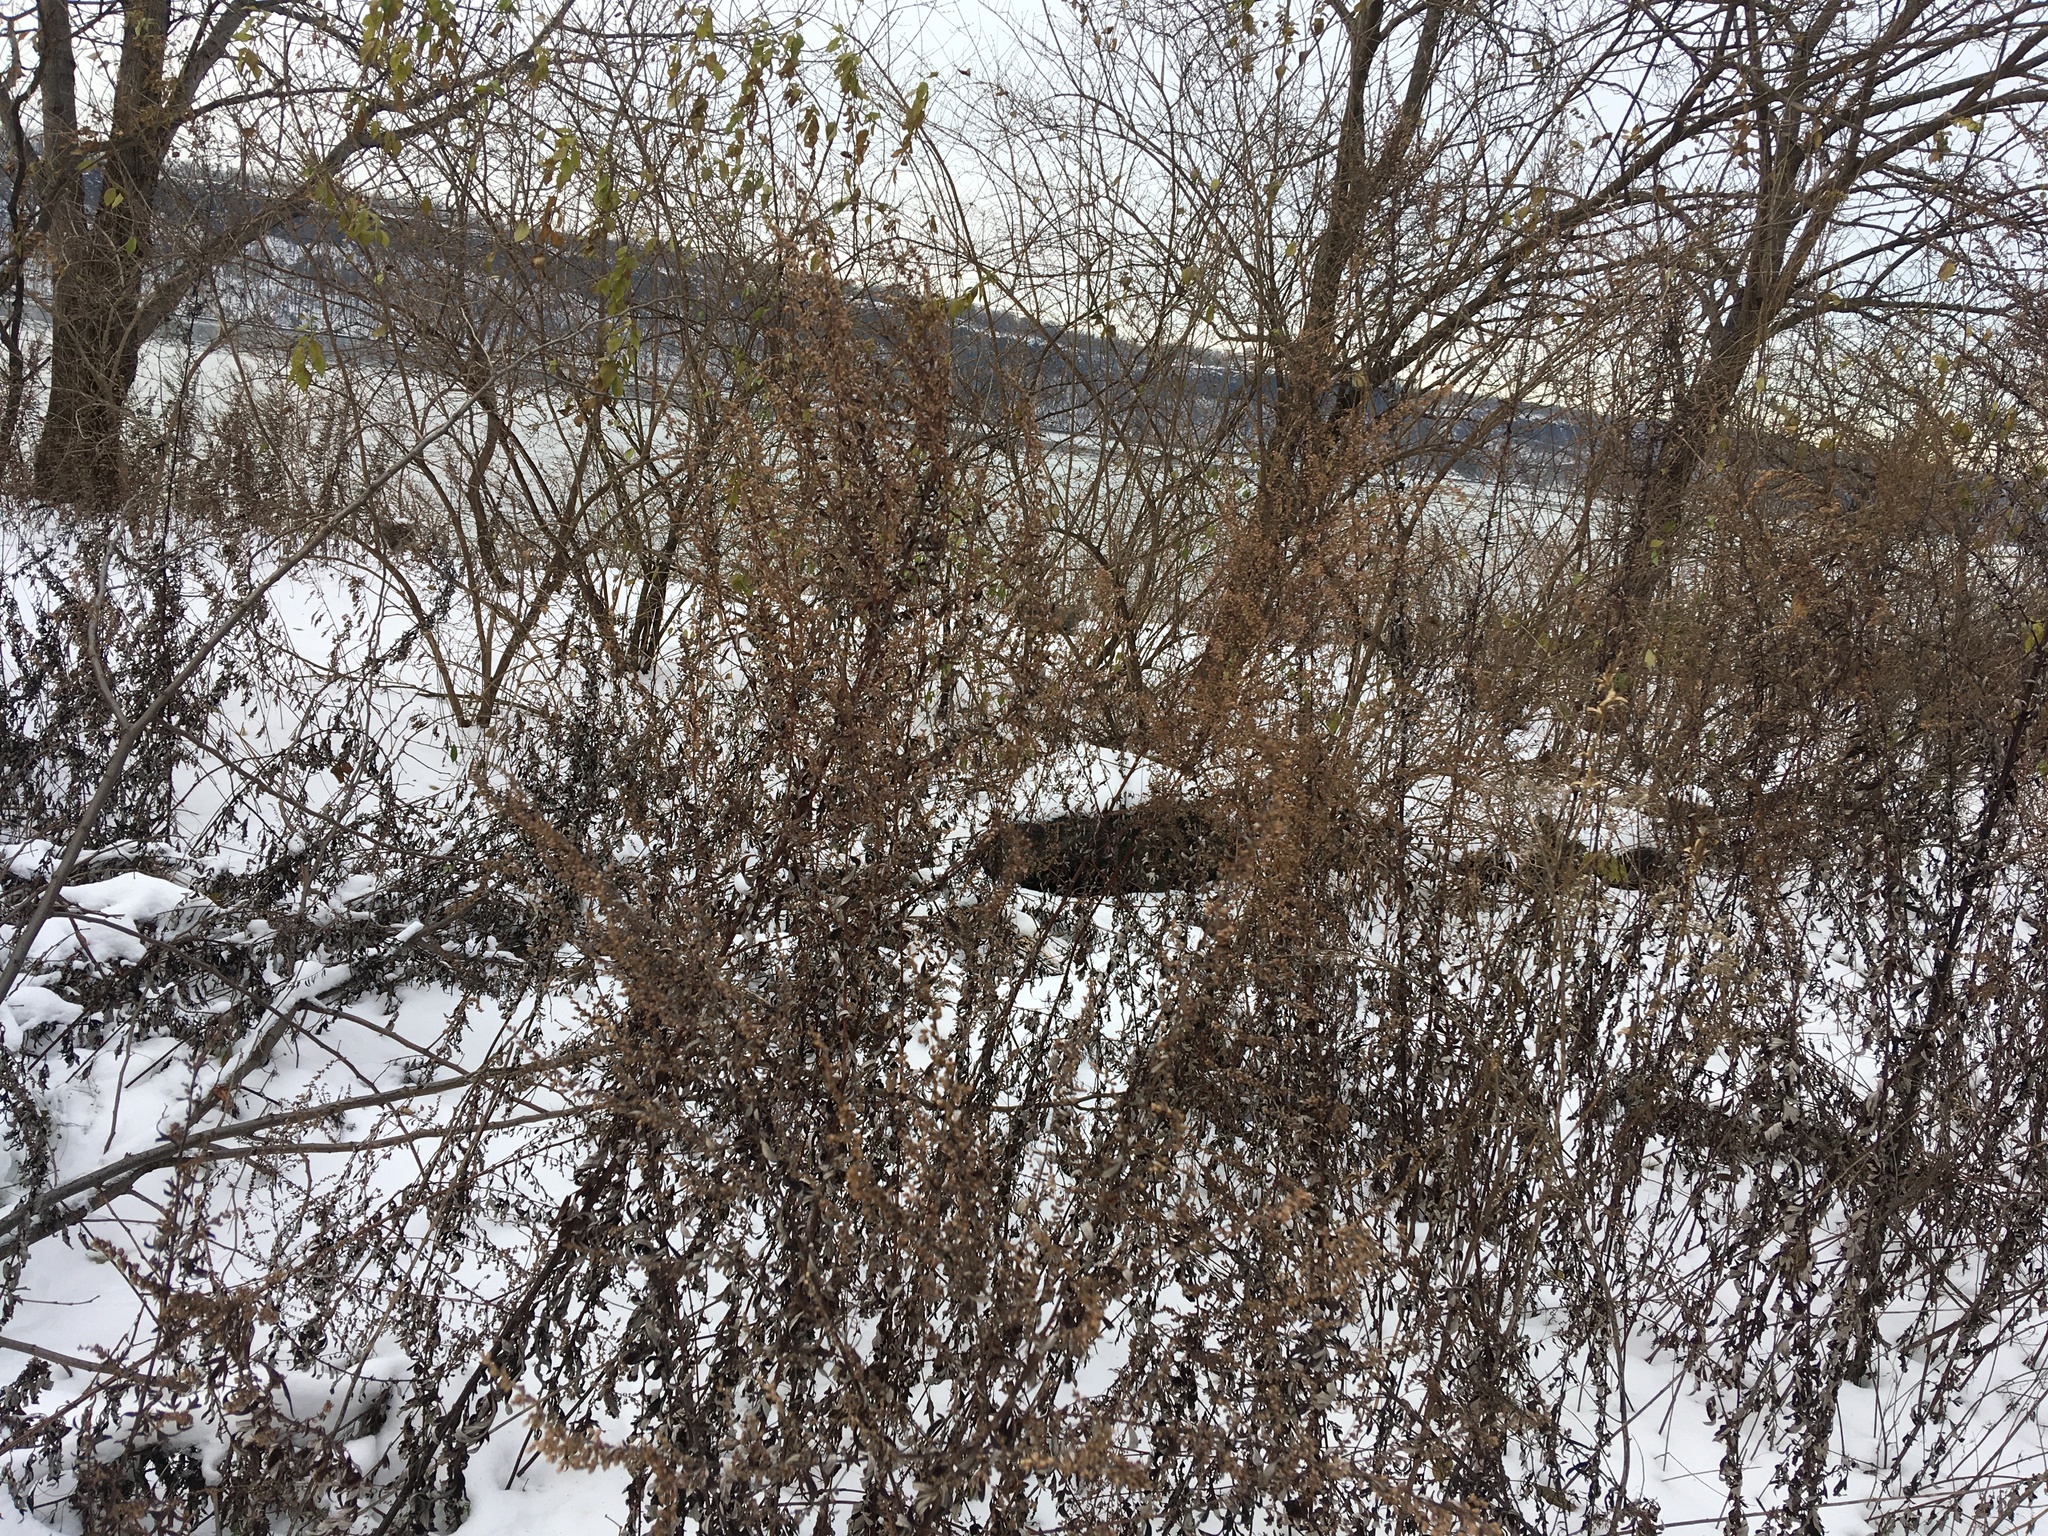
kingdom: Plantae
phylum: Tracheophyta
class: Magnoliopsida
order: Asterales
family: Asteraceae
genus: Artemisia
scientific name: Artemisia vulgaris
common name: Mugwort
